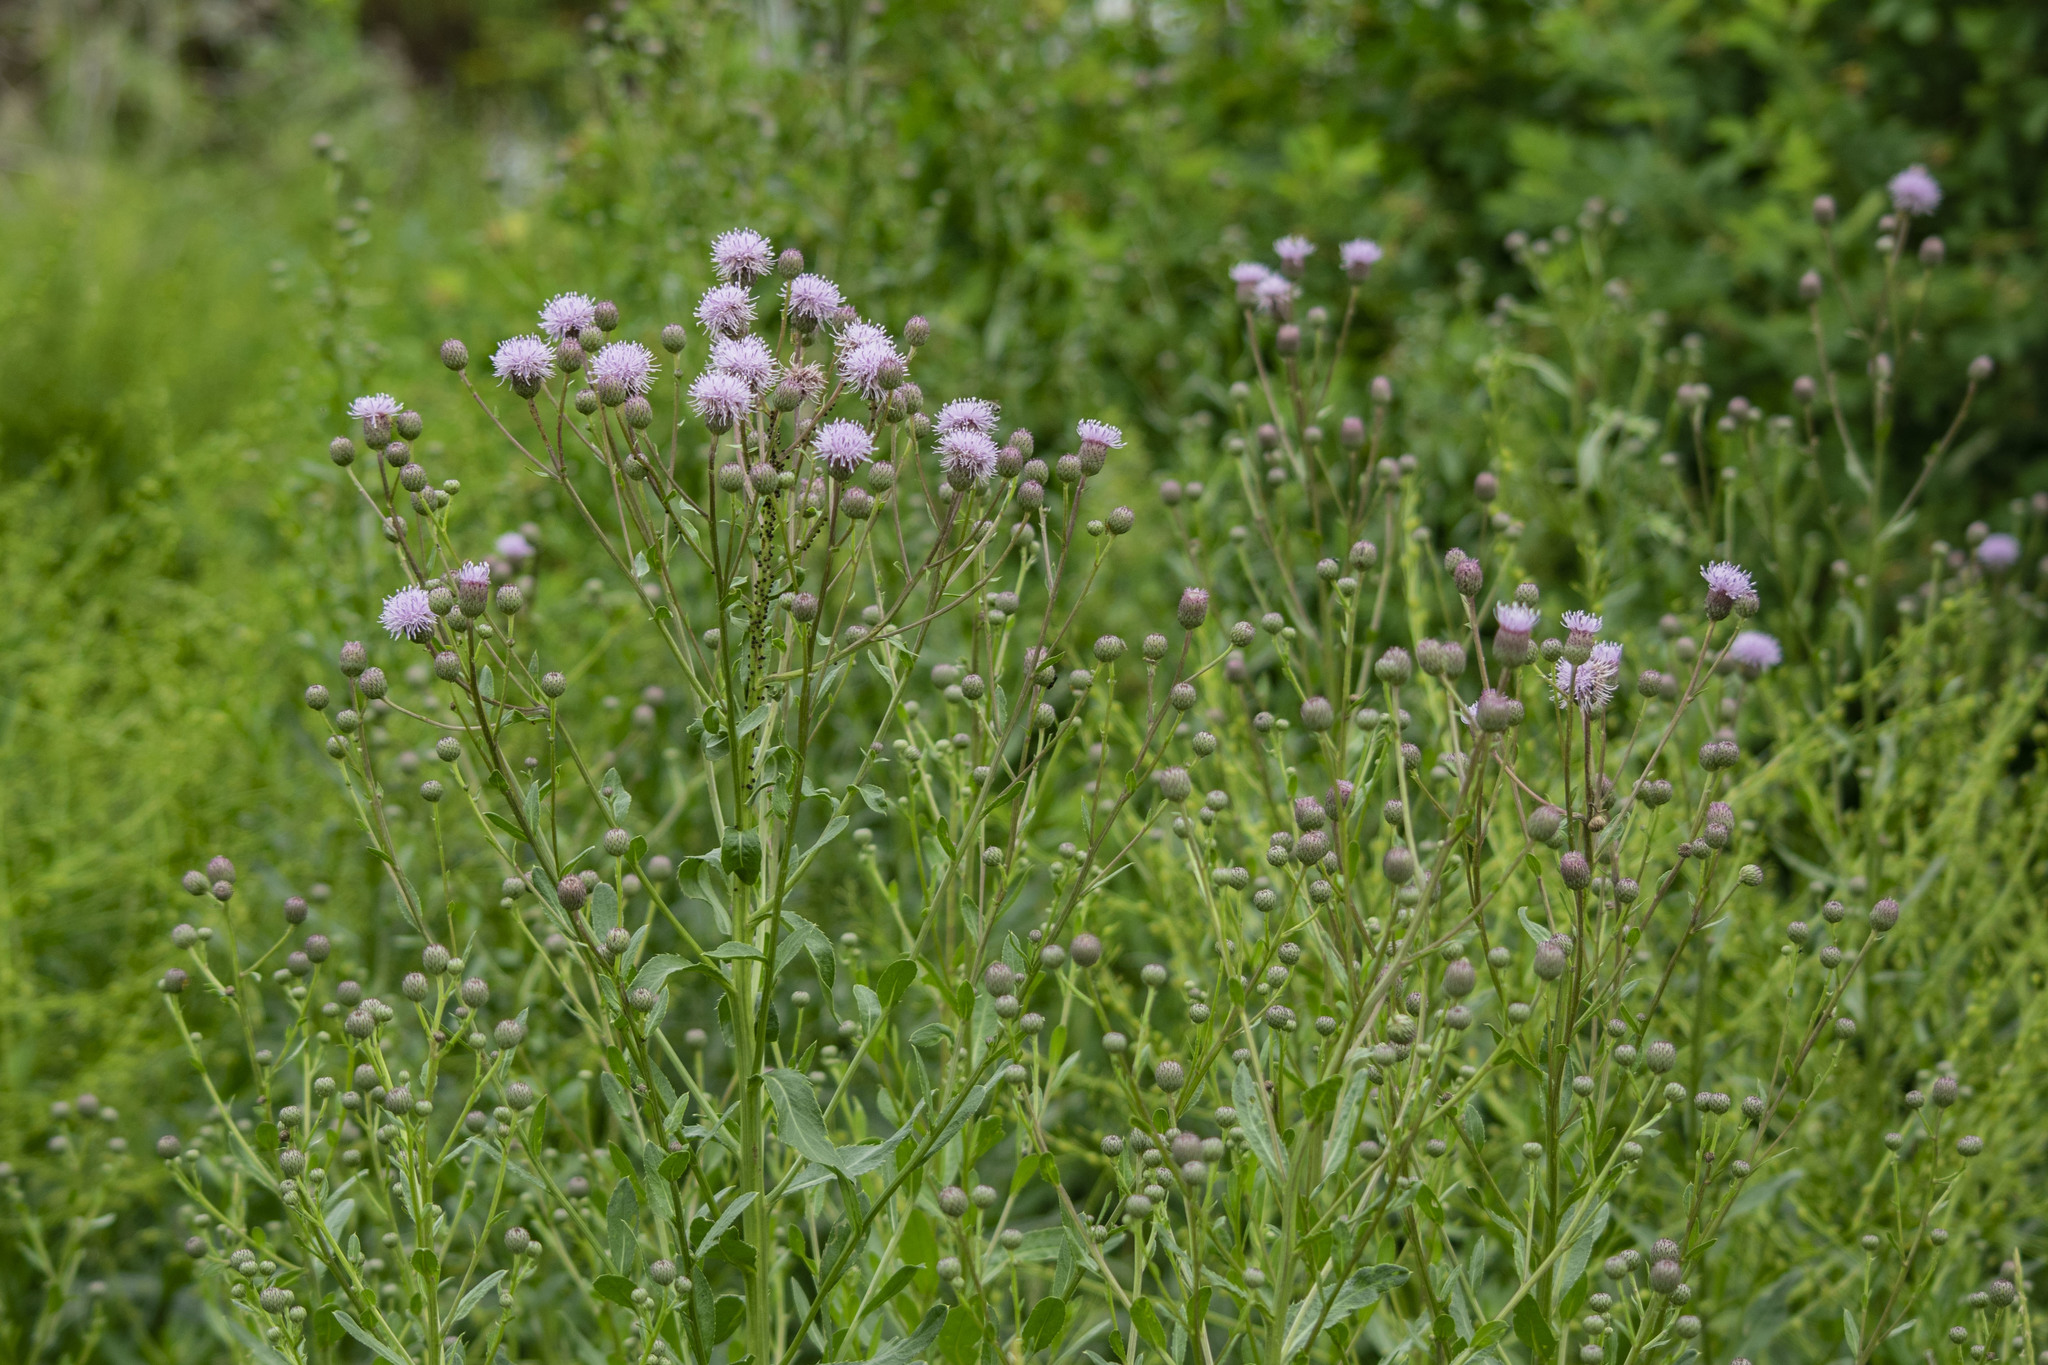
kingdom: Plantae
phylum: Tracheophyta
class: Magnoliopsida
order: Asterales
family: Asteraceae
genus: Cirsium
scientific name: Cirsium arvense
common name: Creeping thistle
